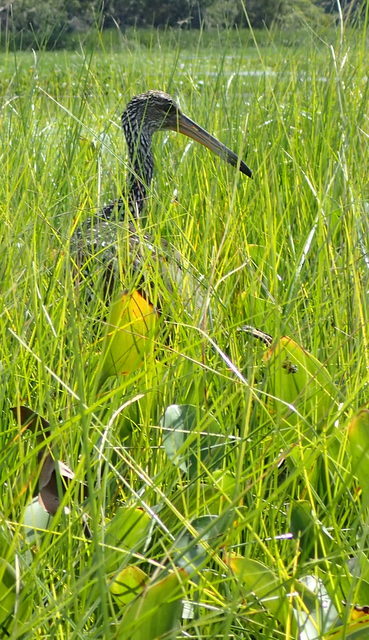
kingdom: Animalia
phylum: Chordata
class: Aves
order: Gruiformes
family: Aramidae
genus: Aramus
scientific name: Aramus guarauna
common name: Limpkin
